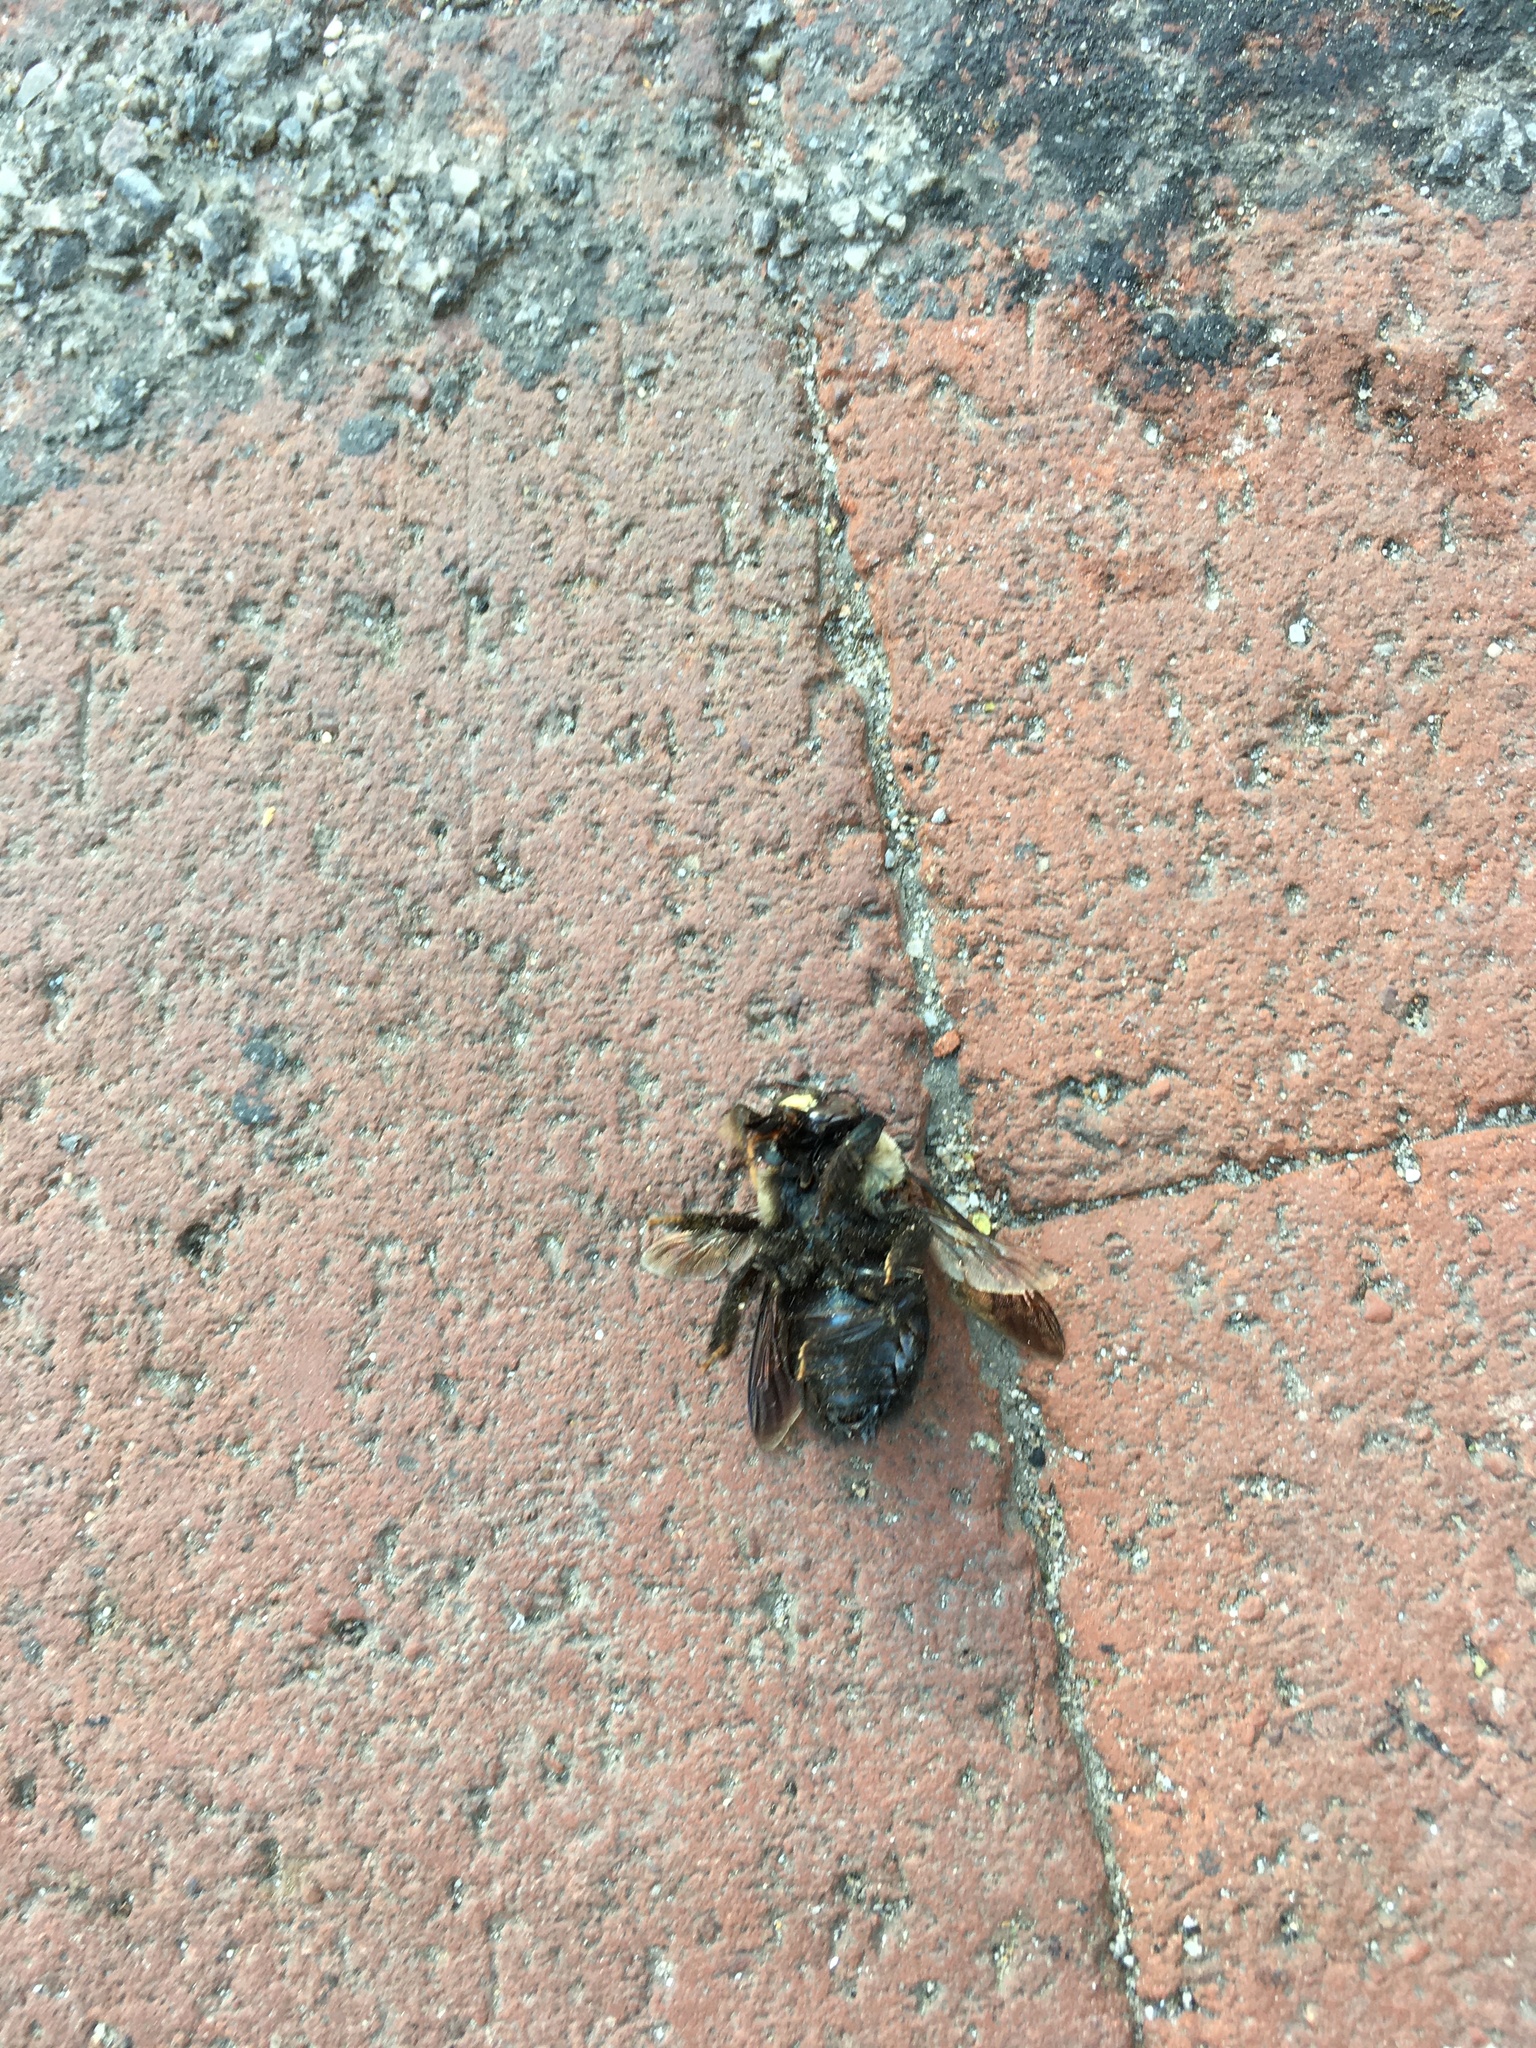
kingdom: Animalia
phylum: Arthropoda
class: Insecta
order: Hymenoptera
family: Apidae
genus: Xylocopa
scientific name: Xylocopa virginica
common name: Carpenter bee
